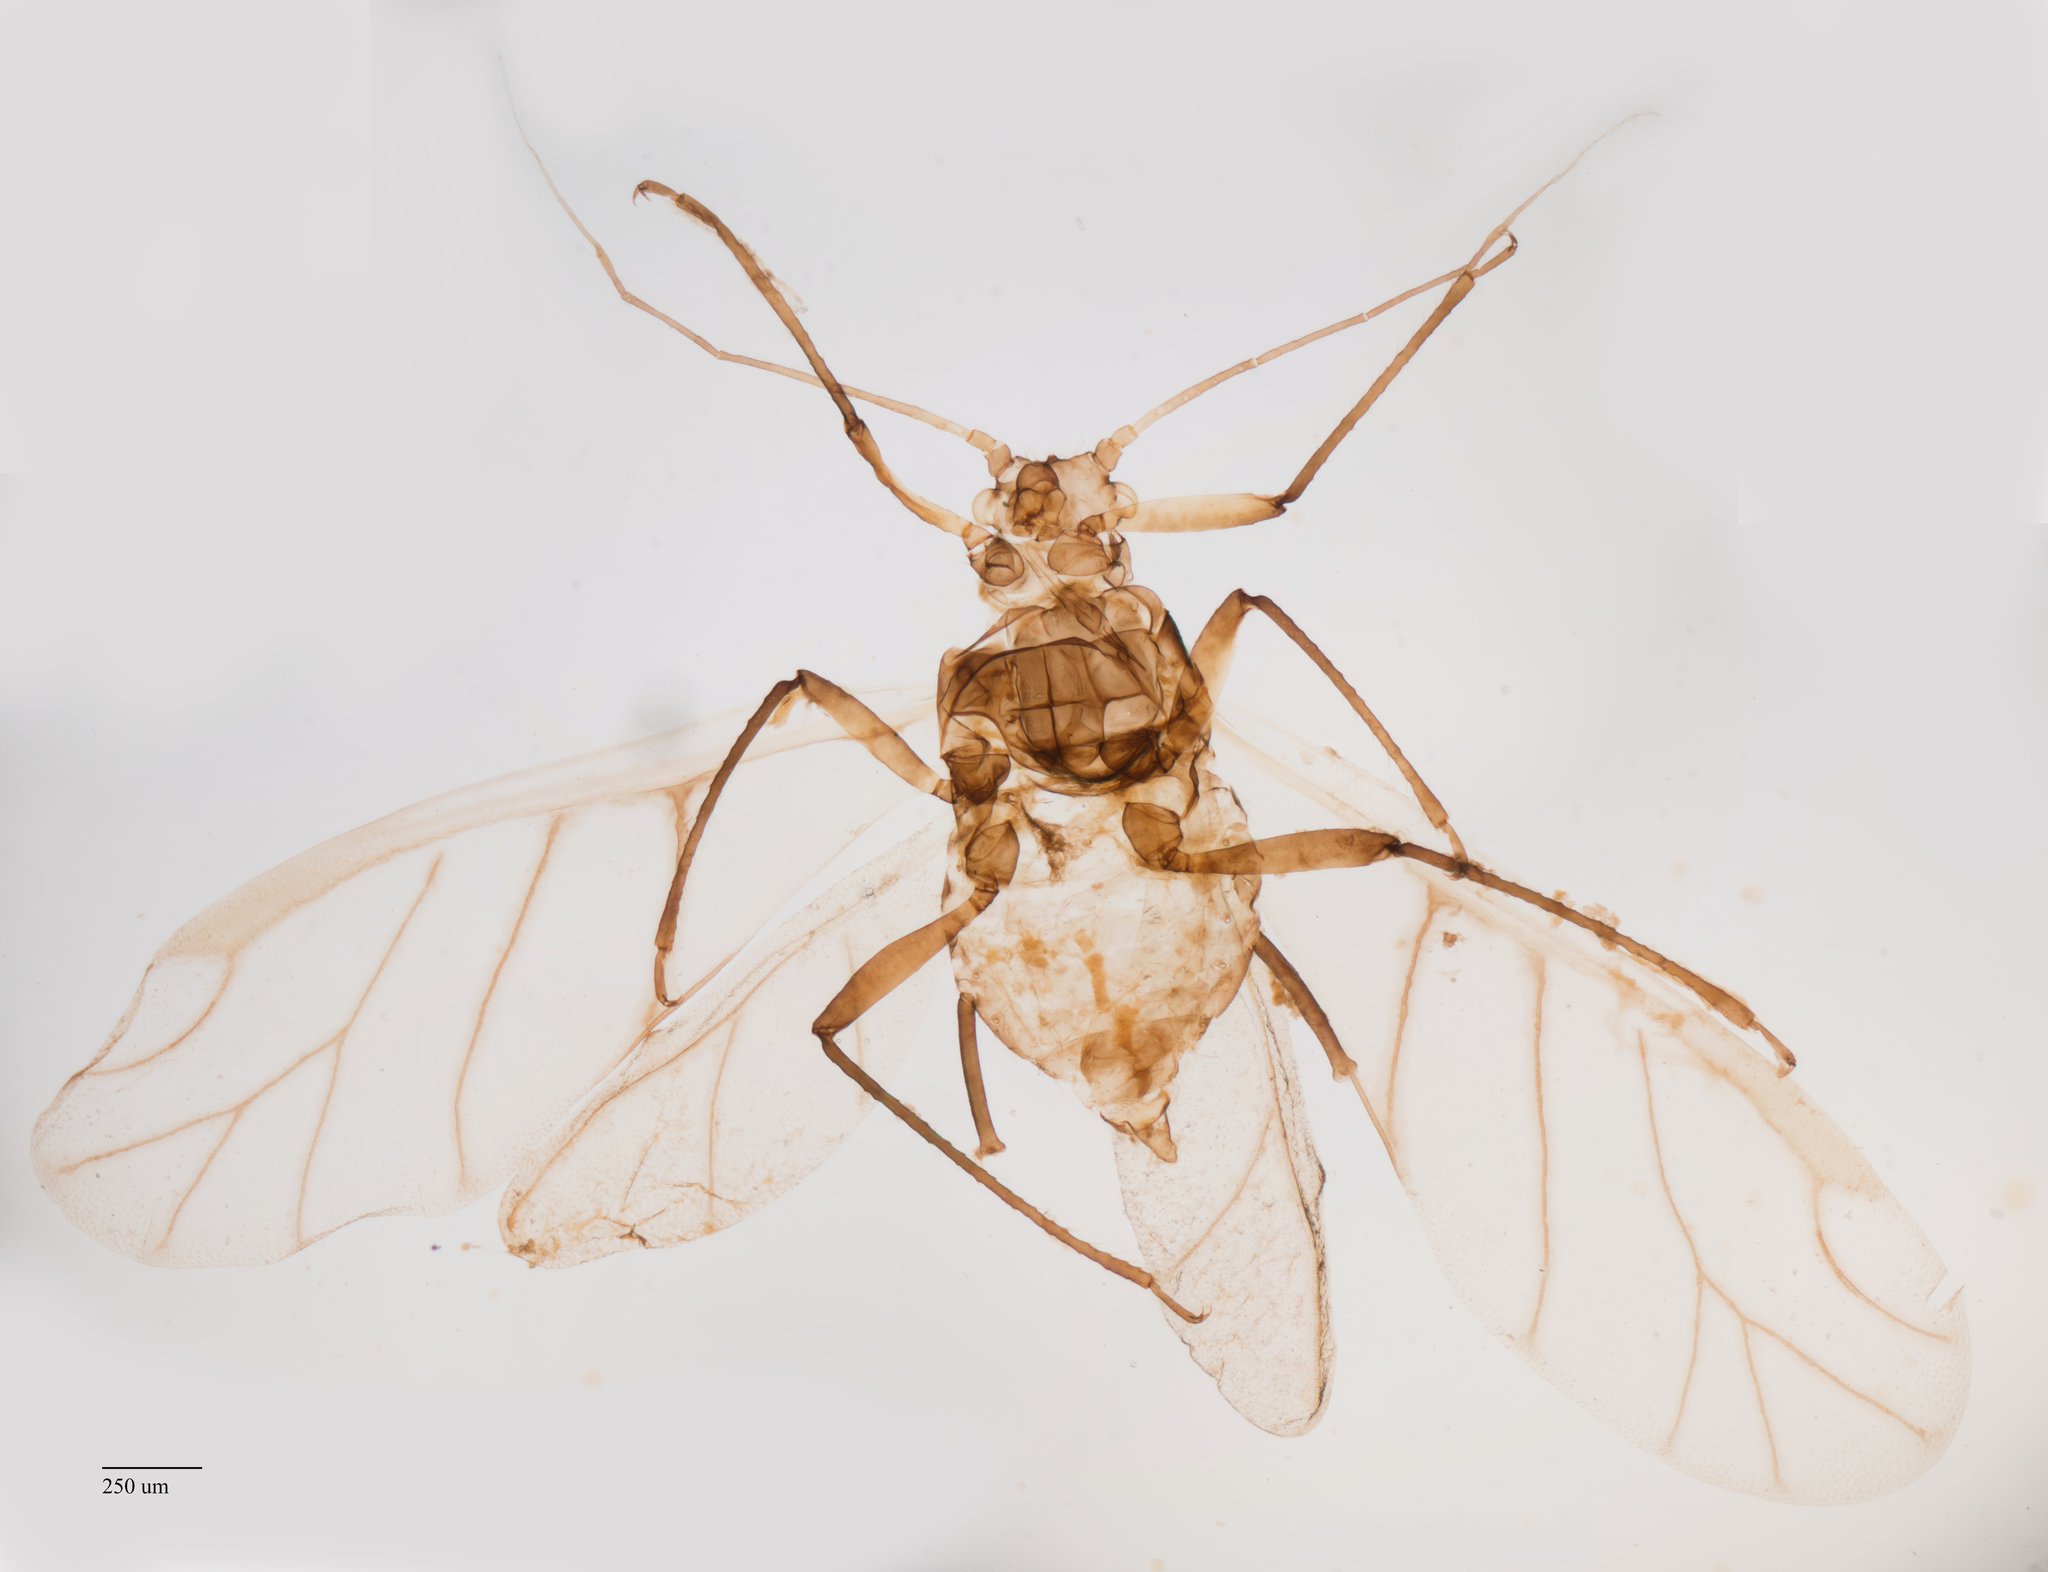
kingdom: Animalia
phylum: Arthropoda
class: Insecta
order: Hemiptera
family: Aphididae
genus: Epameibaphis
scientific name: Epameibaphis atricornis
